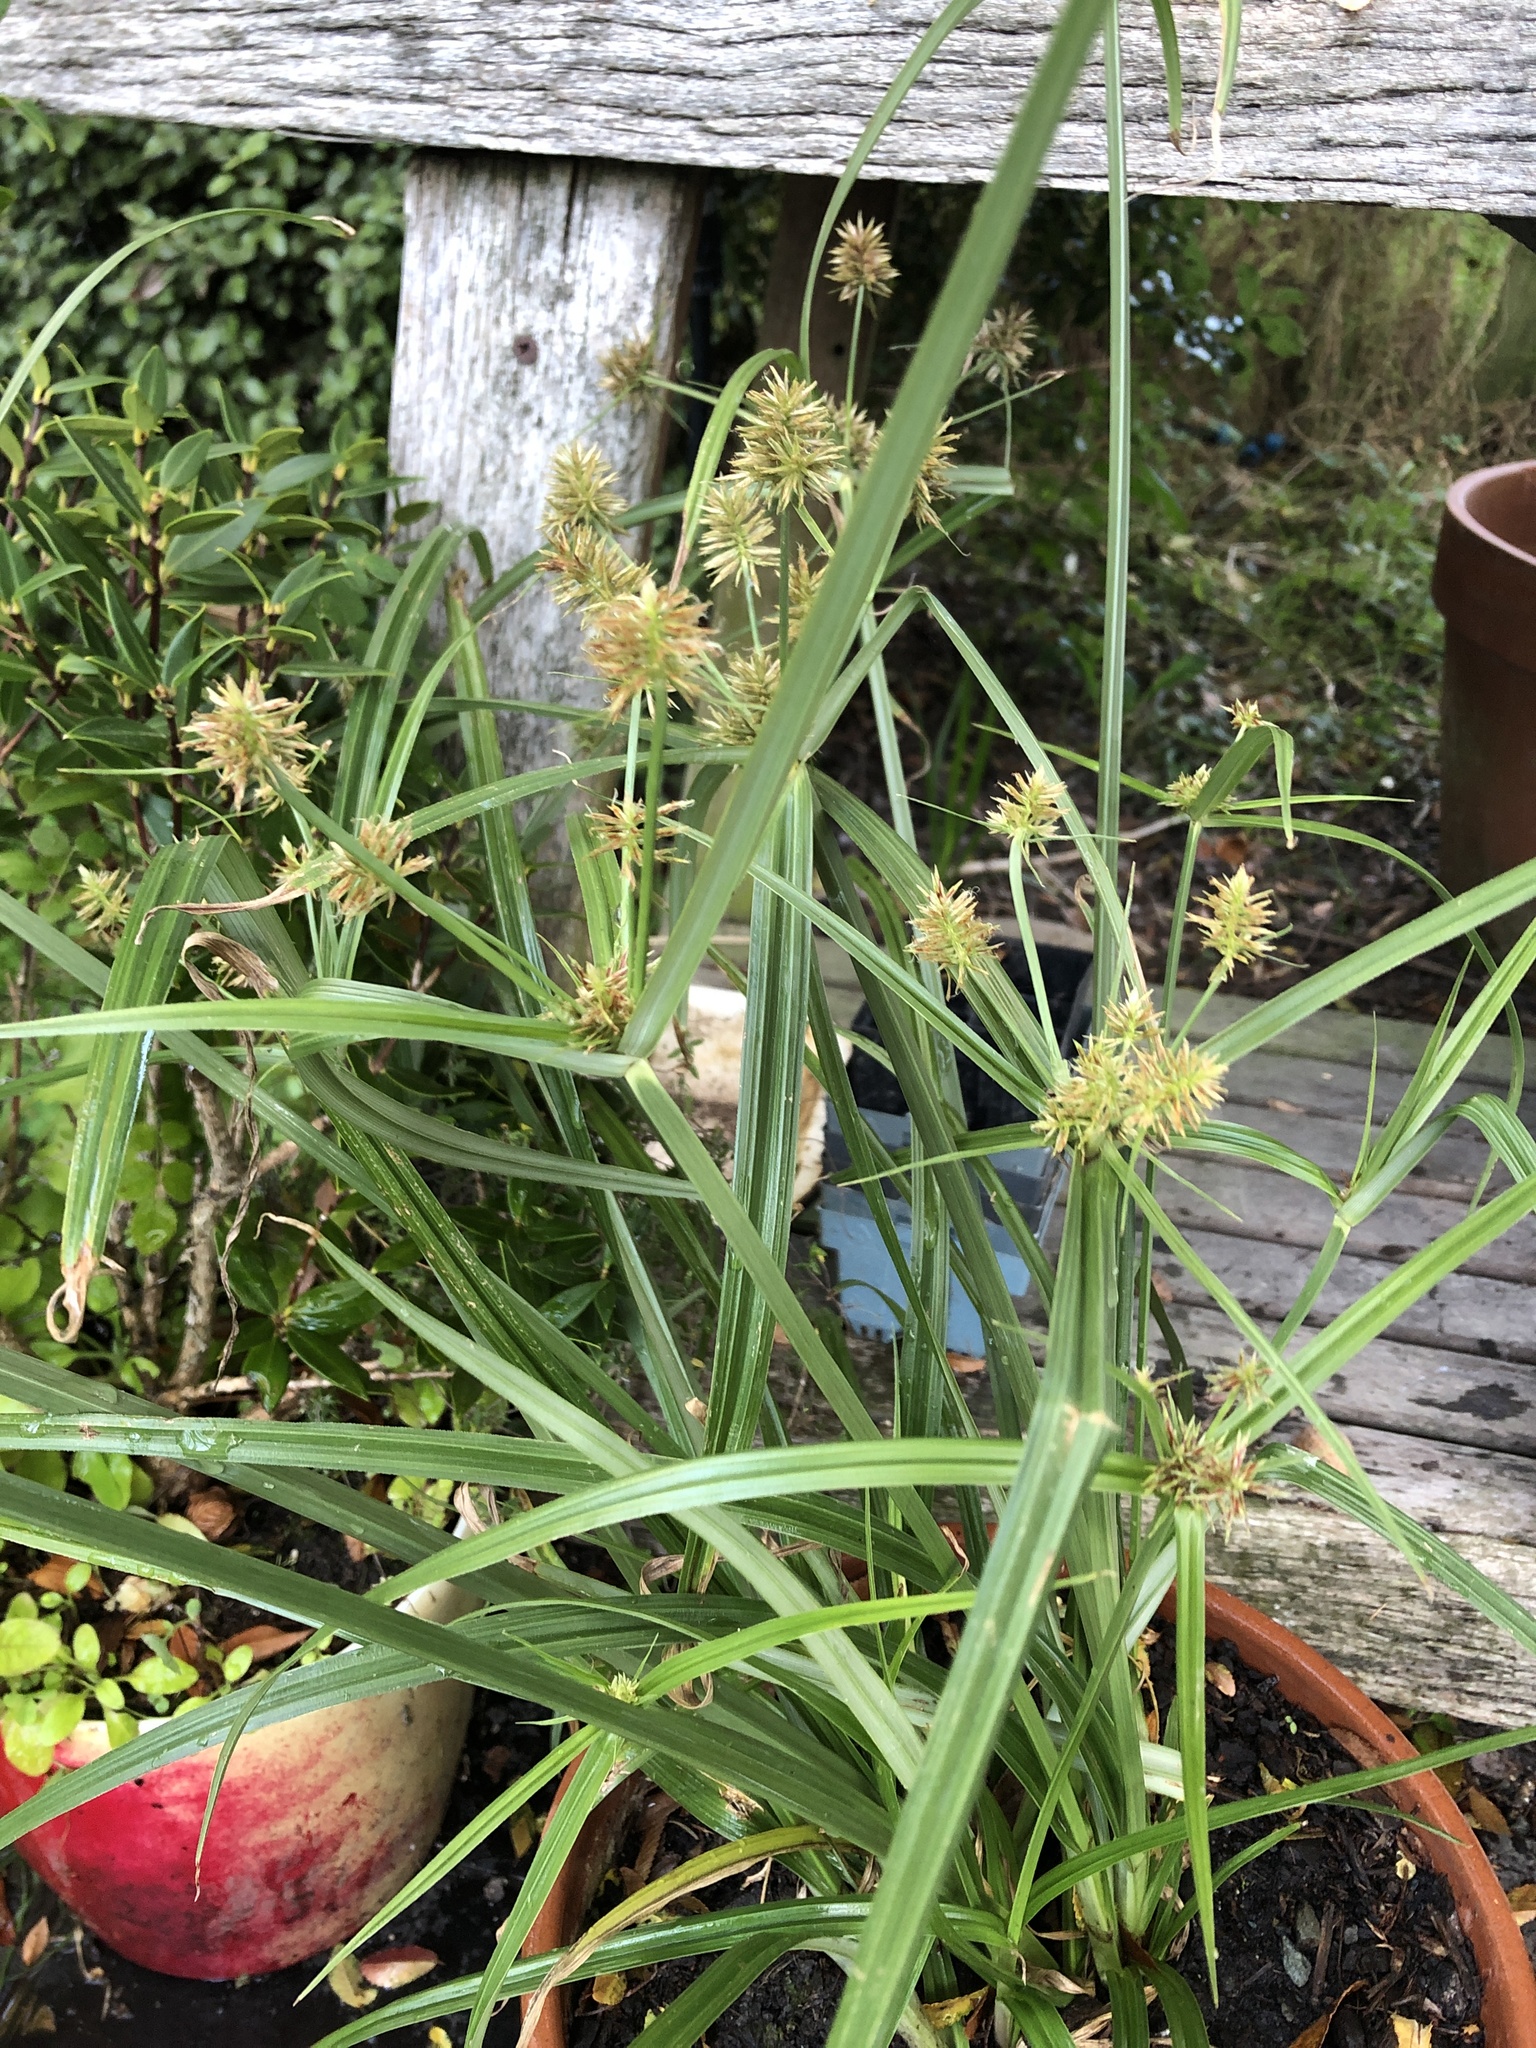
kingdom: Plantae
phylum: Tracheophyta
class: Liliopsida
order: Poales
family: Cyperaceae
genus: Cyperus
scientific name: Cyperus congestus
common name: Dense flat sedge
